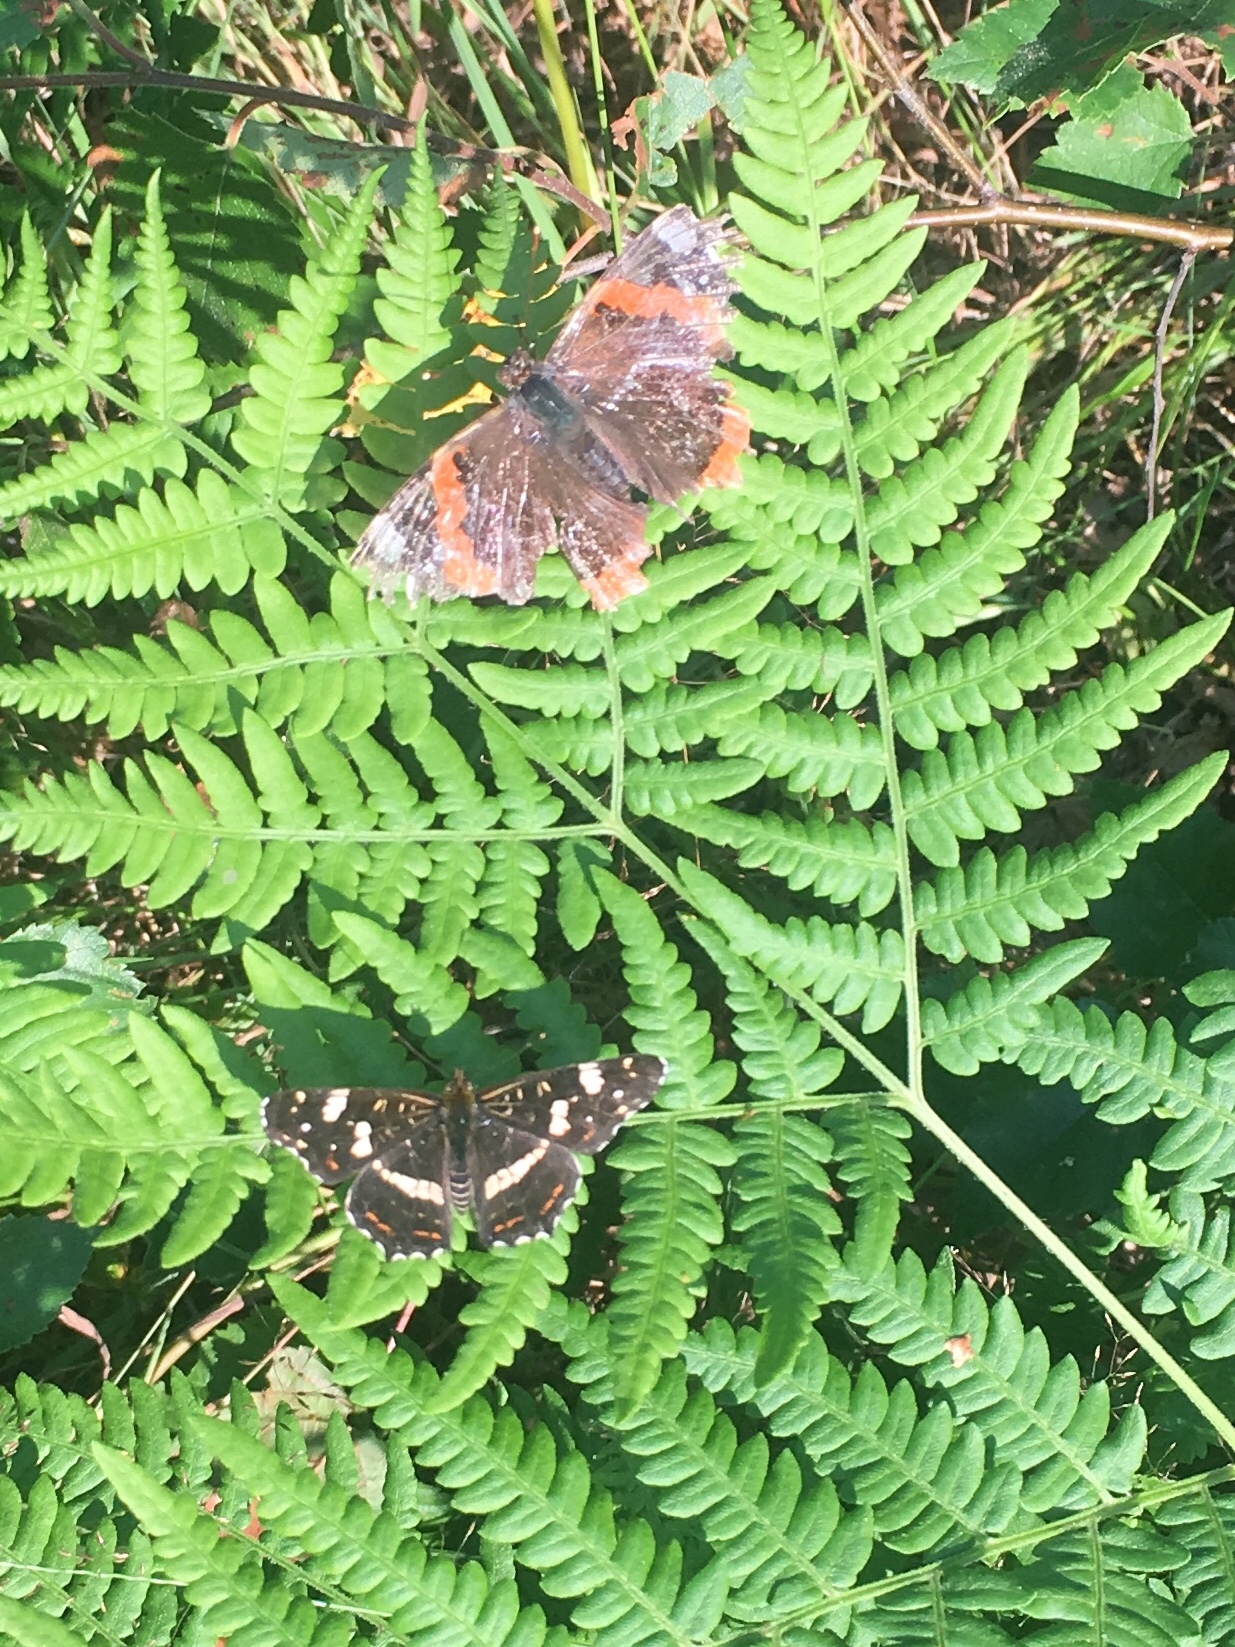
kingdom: Animalia
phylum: Arthropoda
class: Insecta
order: Lepidoptera
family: Nymphalidae
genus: Araschnia
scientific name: Araschnia levana
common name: Map butterfly
